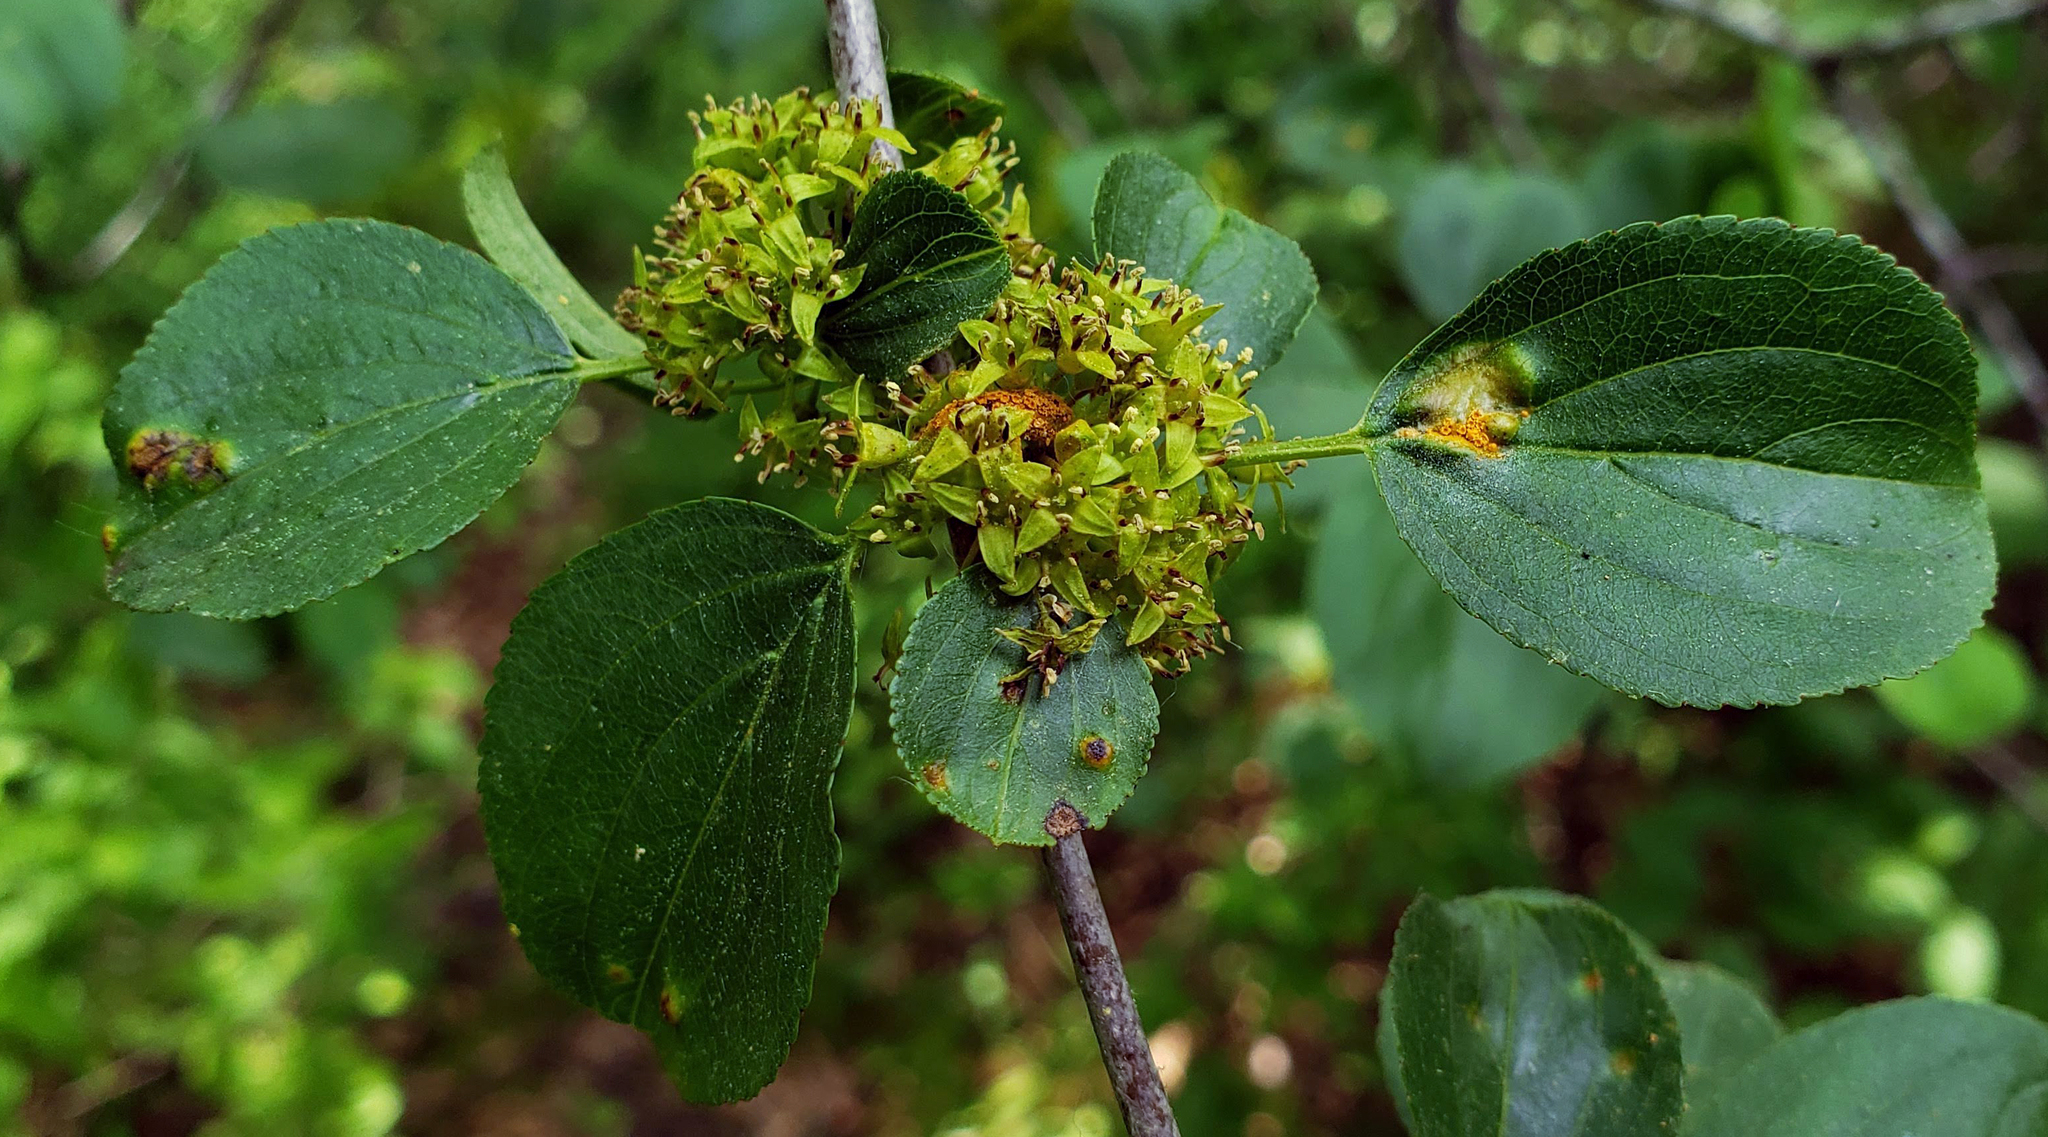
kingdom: Plantae
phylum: Tracheophyta
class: Magnoliopsida
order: Rosales
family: Rhamnaceae
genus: Rhamnus
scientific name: Rhamnus cathartica
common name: Common buckthorn
